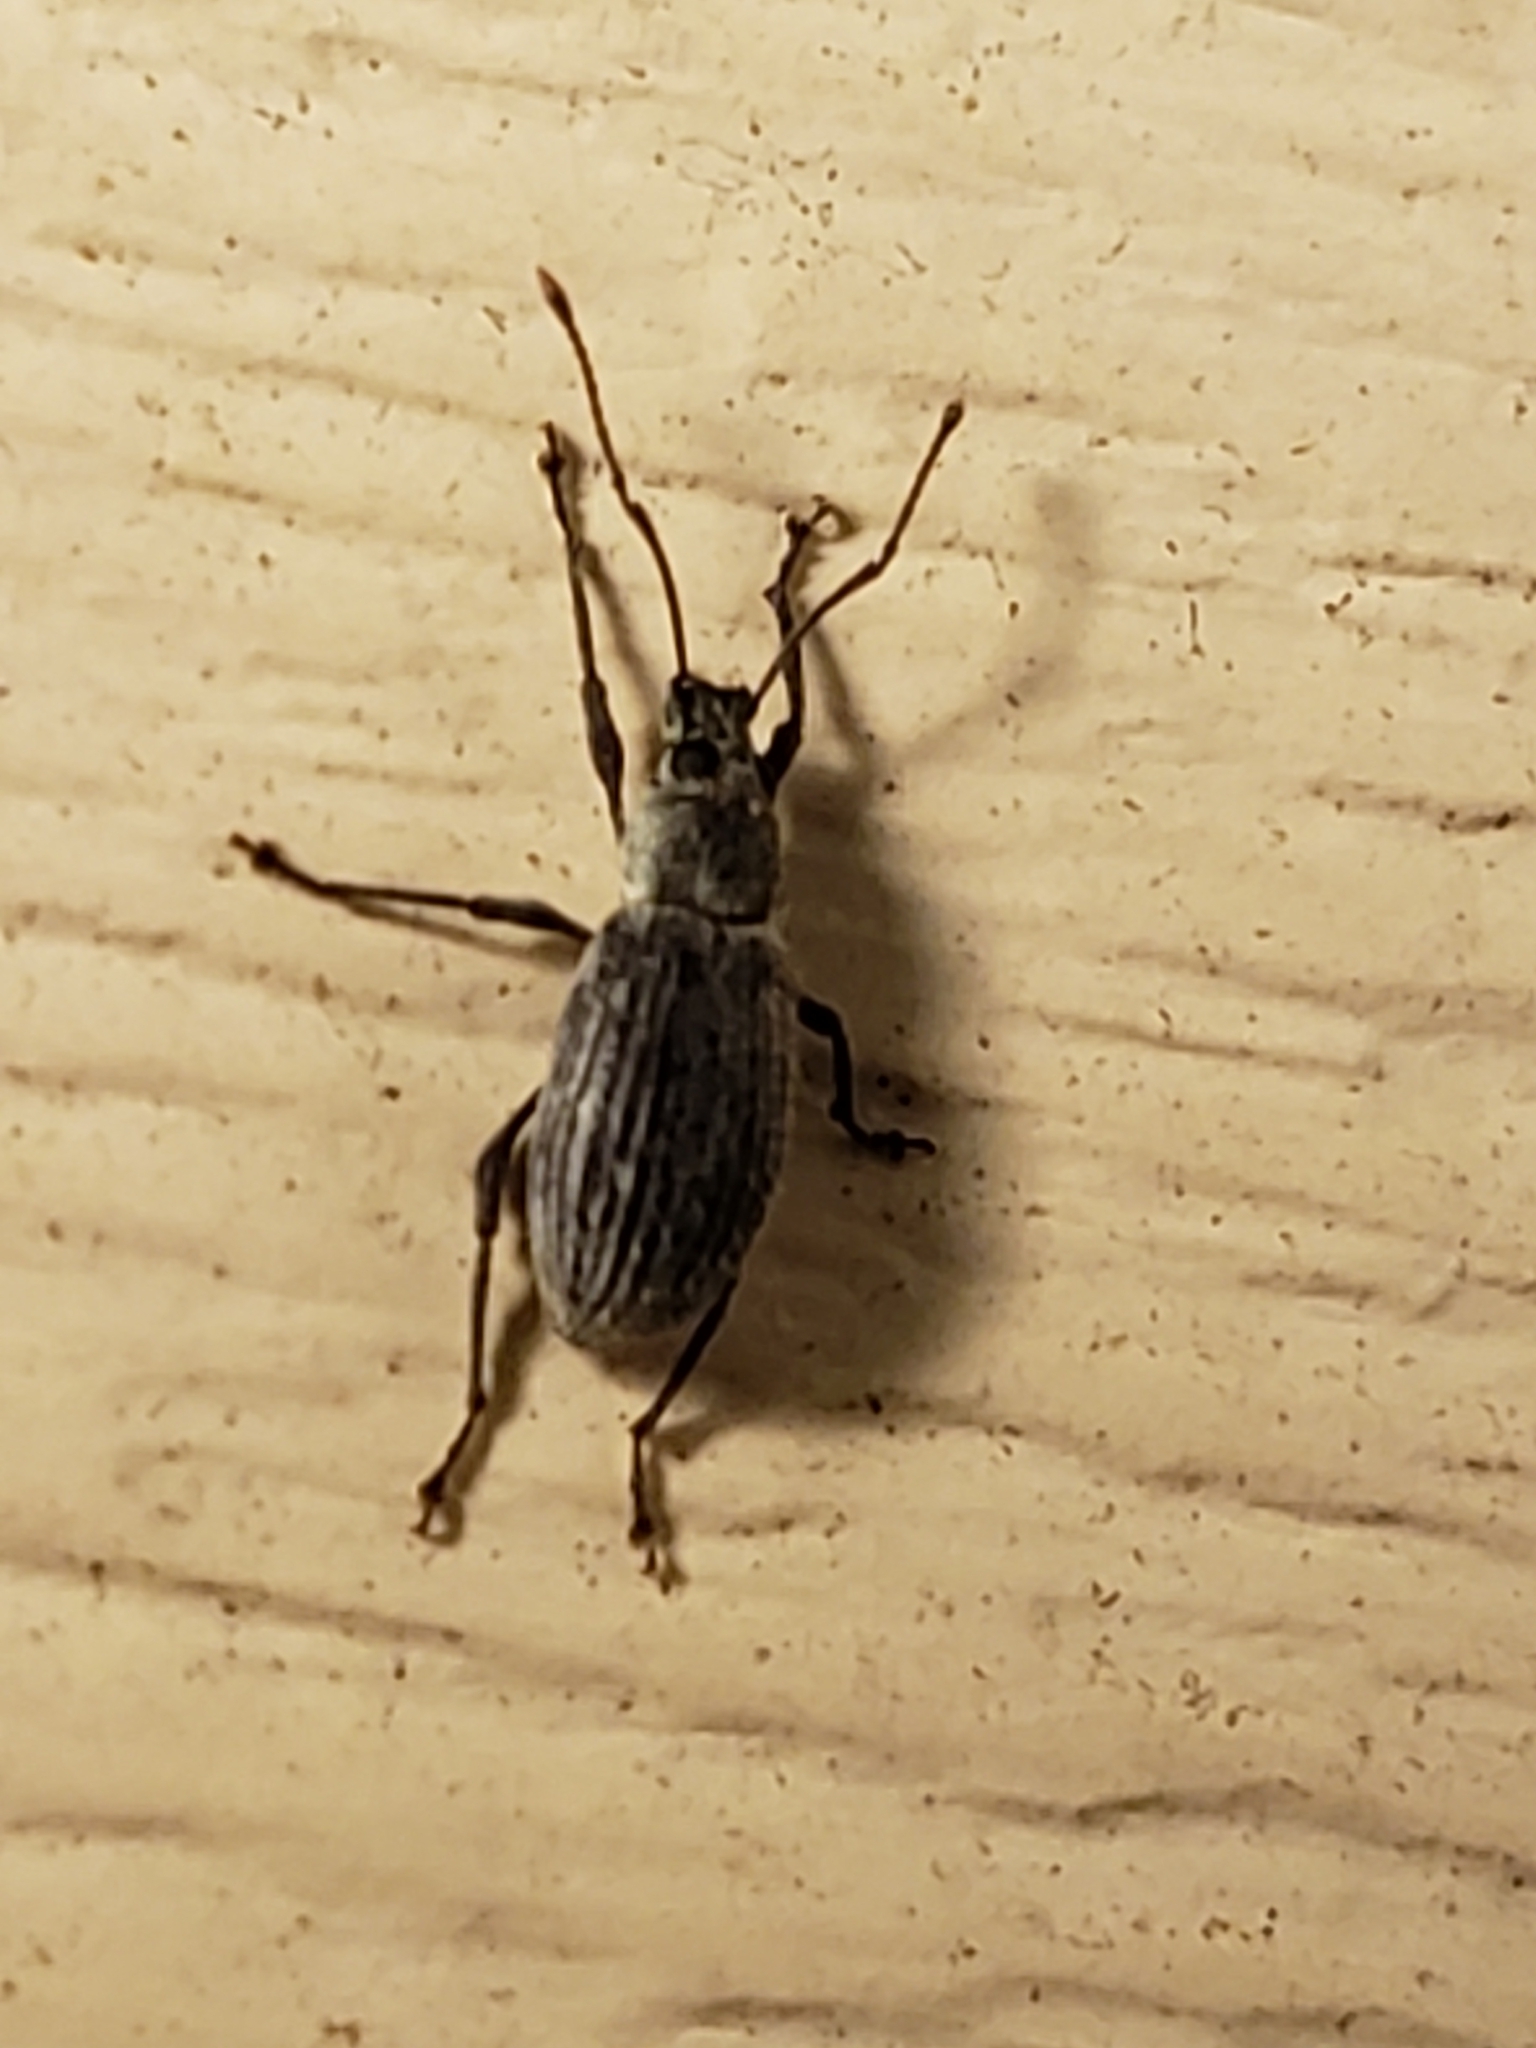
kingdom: Animalia
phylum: Arthropoda
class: Insecta
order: Coleoptera
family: Curculionidae
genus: Cyrtepistomus
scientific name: Cyrtepistomus castaneus
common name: Weevil
